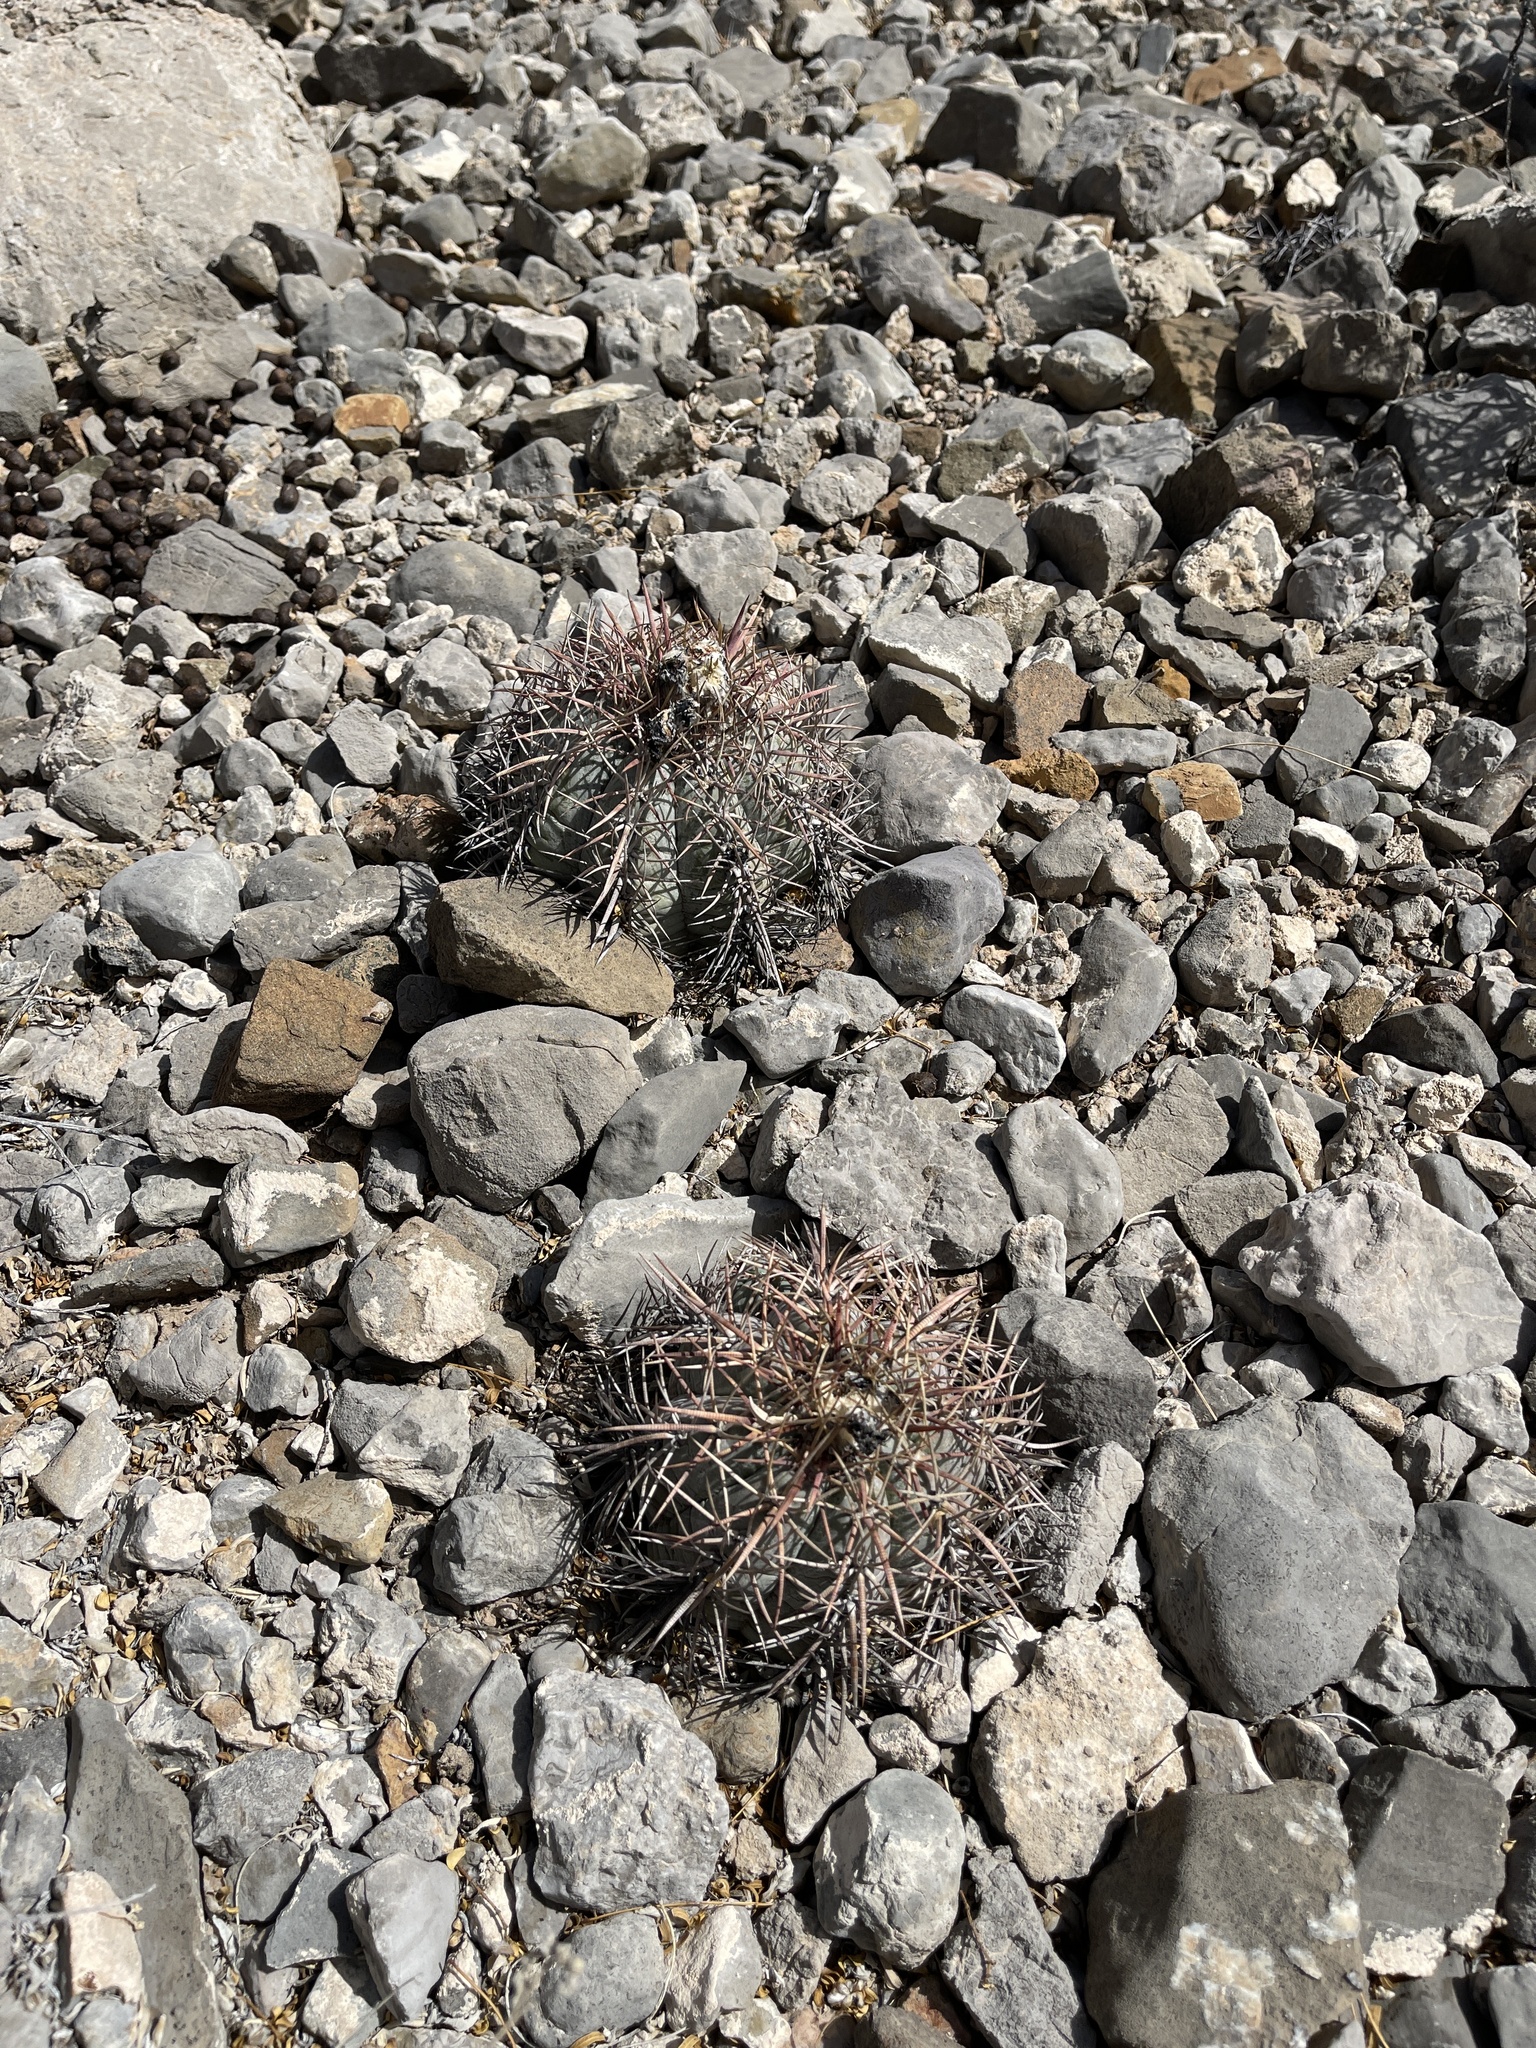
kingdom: Plantae
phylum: Tracheophyta
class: Magnoliopsida
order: Caryophyllales
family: Cactaceae
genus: Echinocactus
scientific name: Echinocactus horizonthalonius
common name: Devilshead
